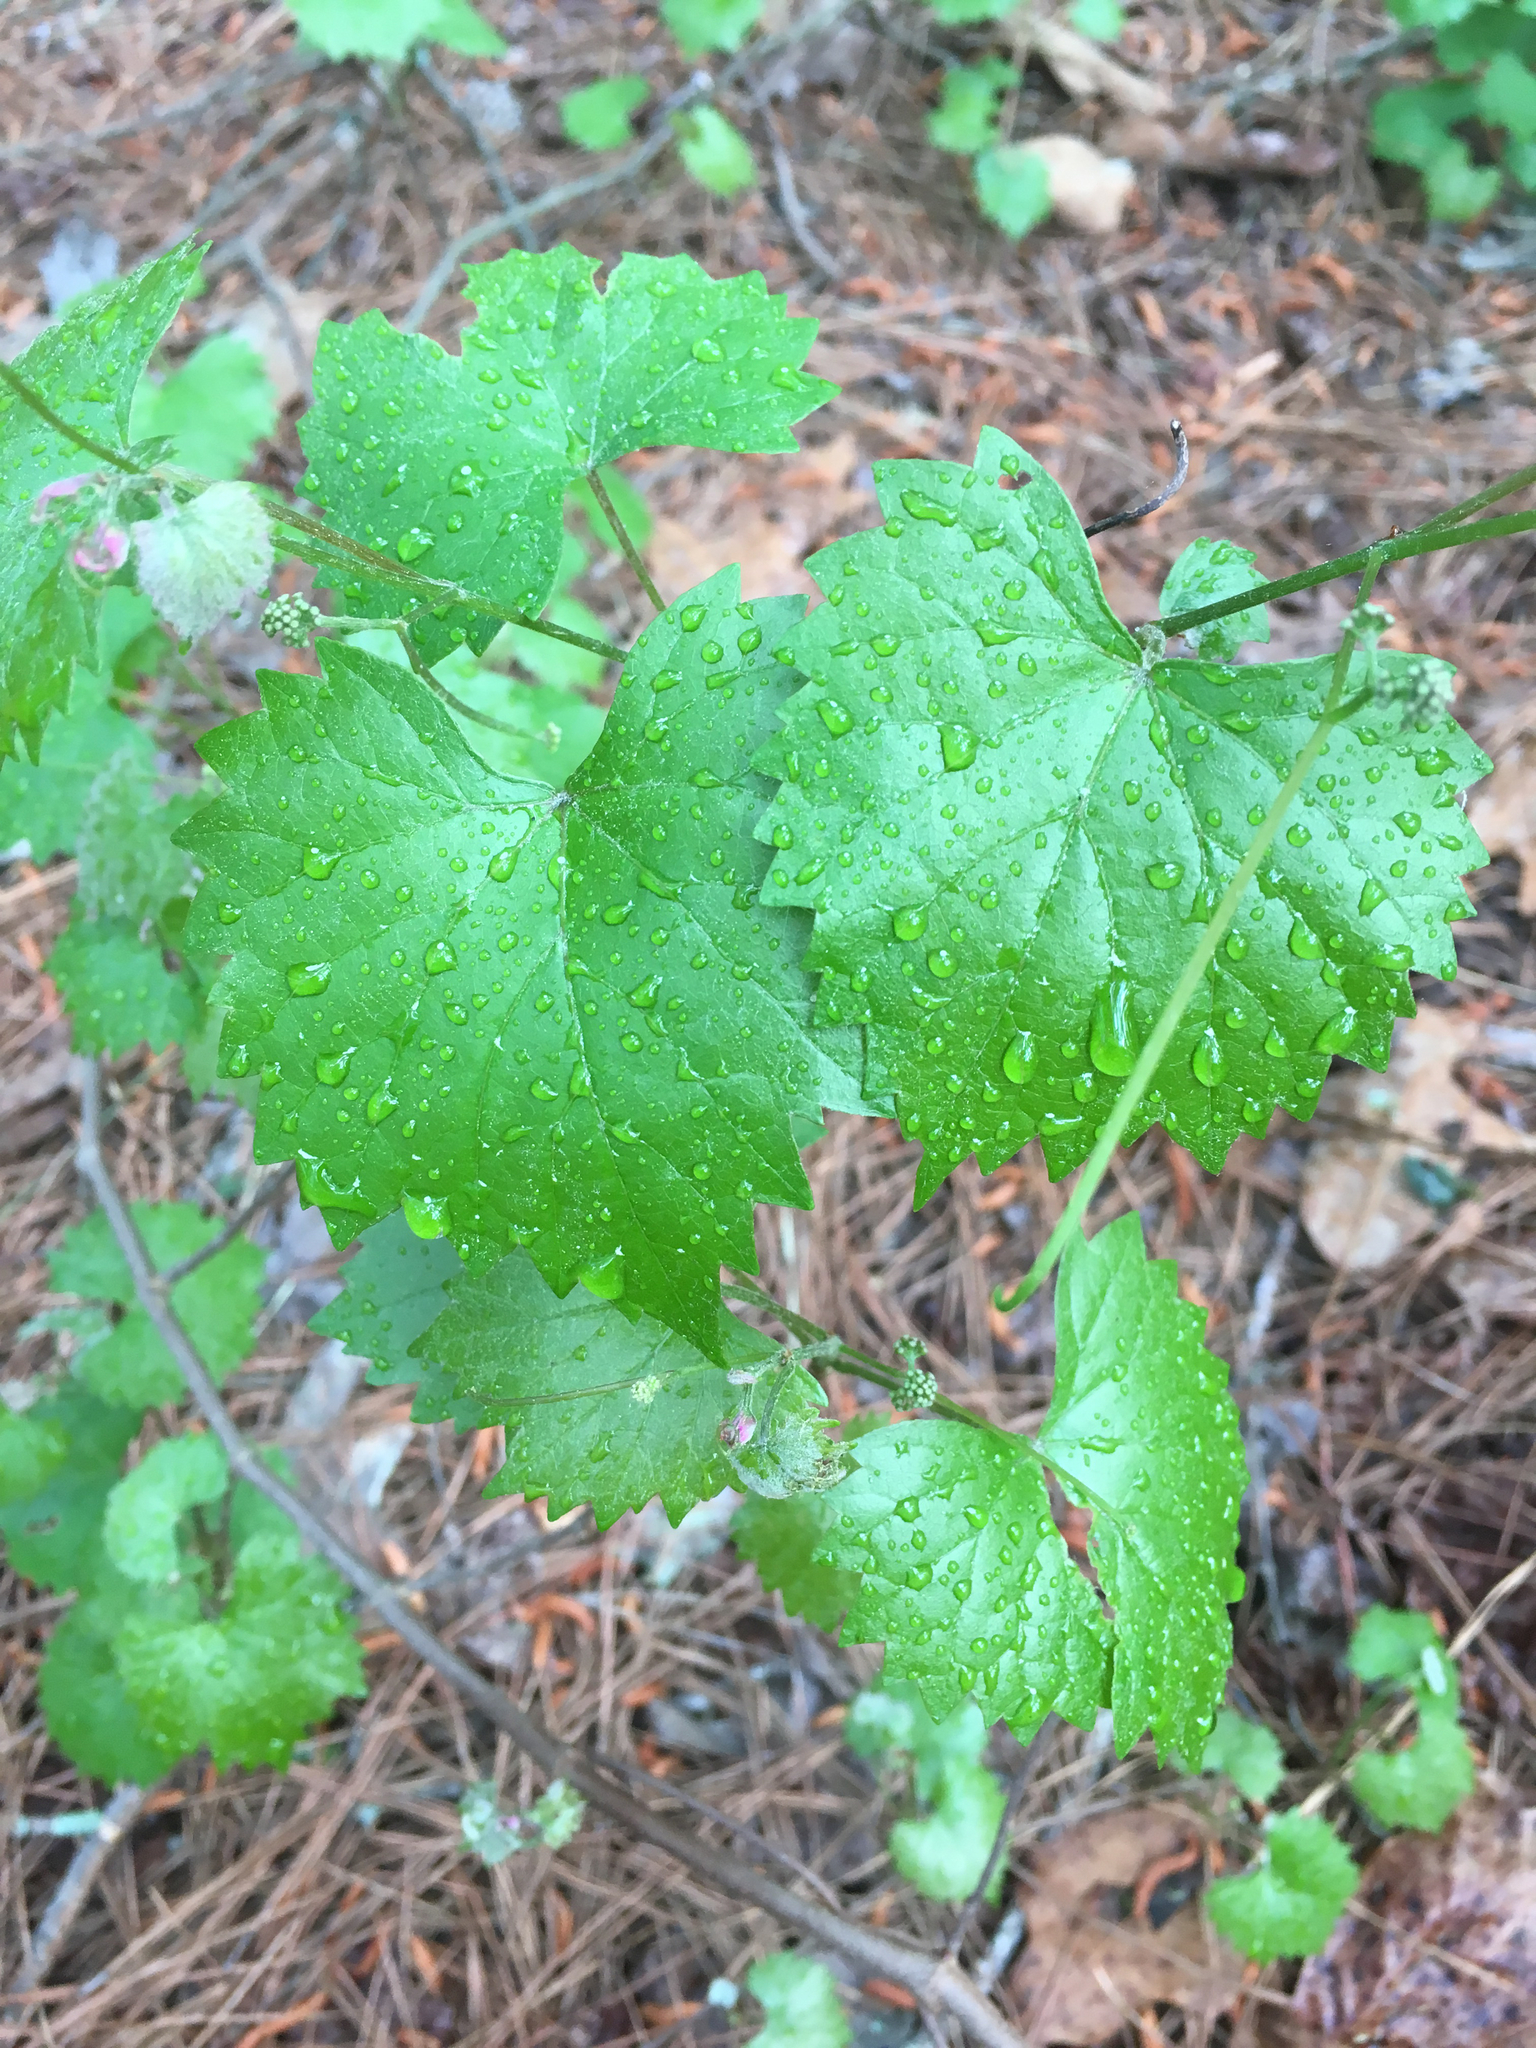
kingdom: Plantae
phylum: Tracheophyta
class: Magnoliopsida
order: Vitales
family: Vitaceae
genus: Vitis
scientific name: Vitis rotundifolia
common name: Muscadine grape
